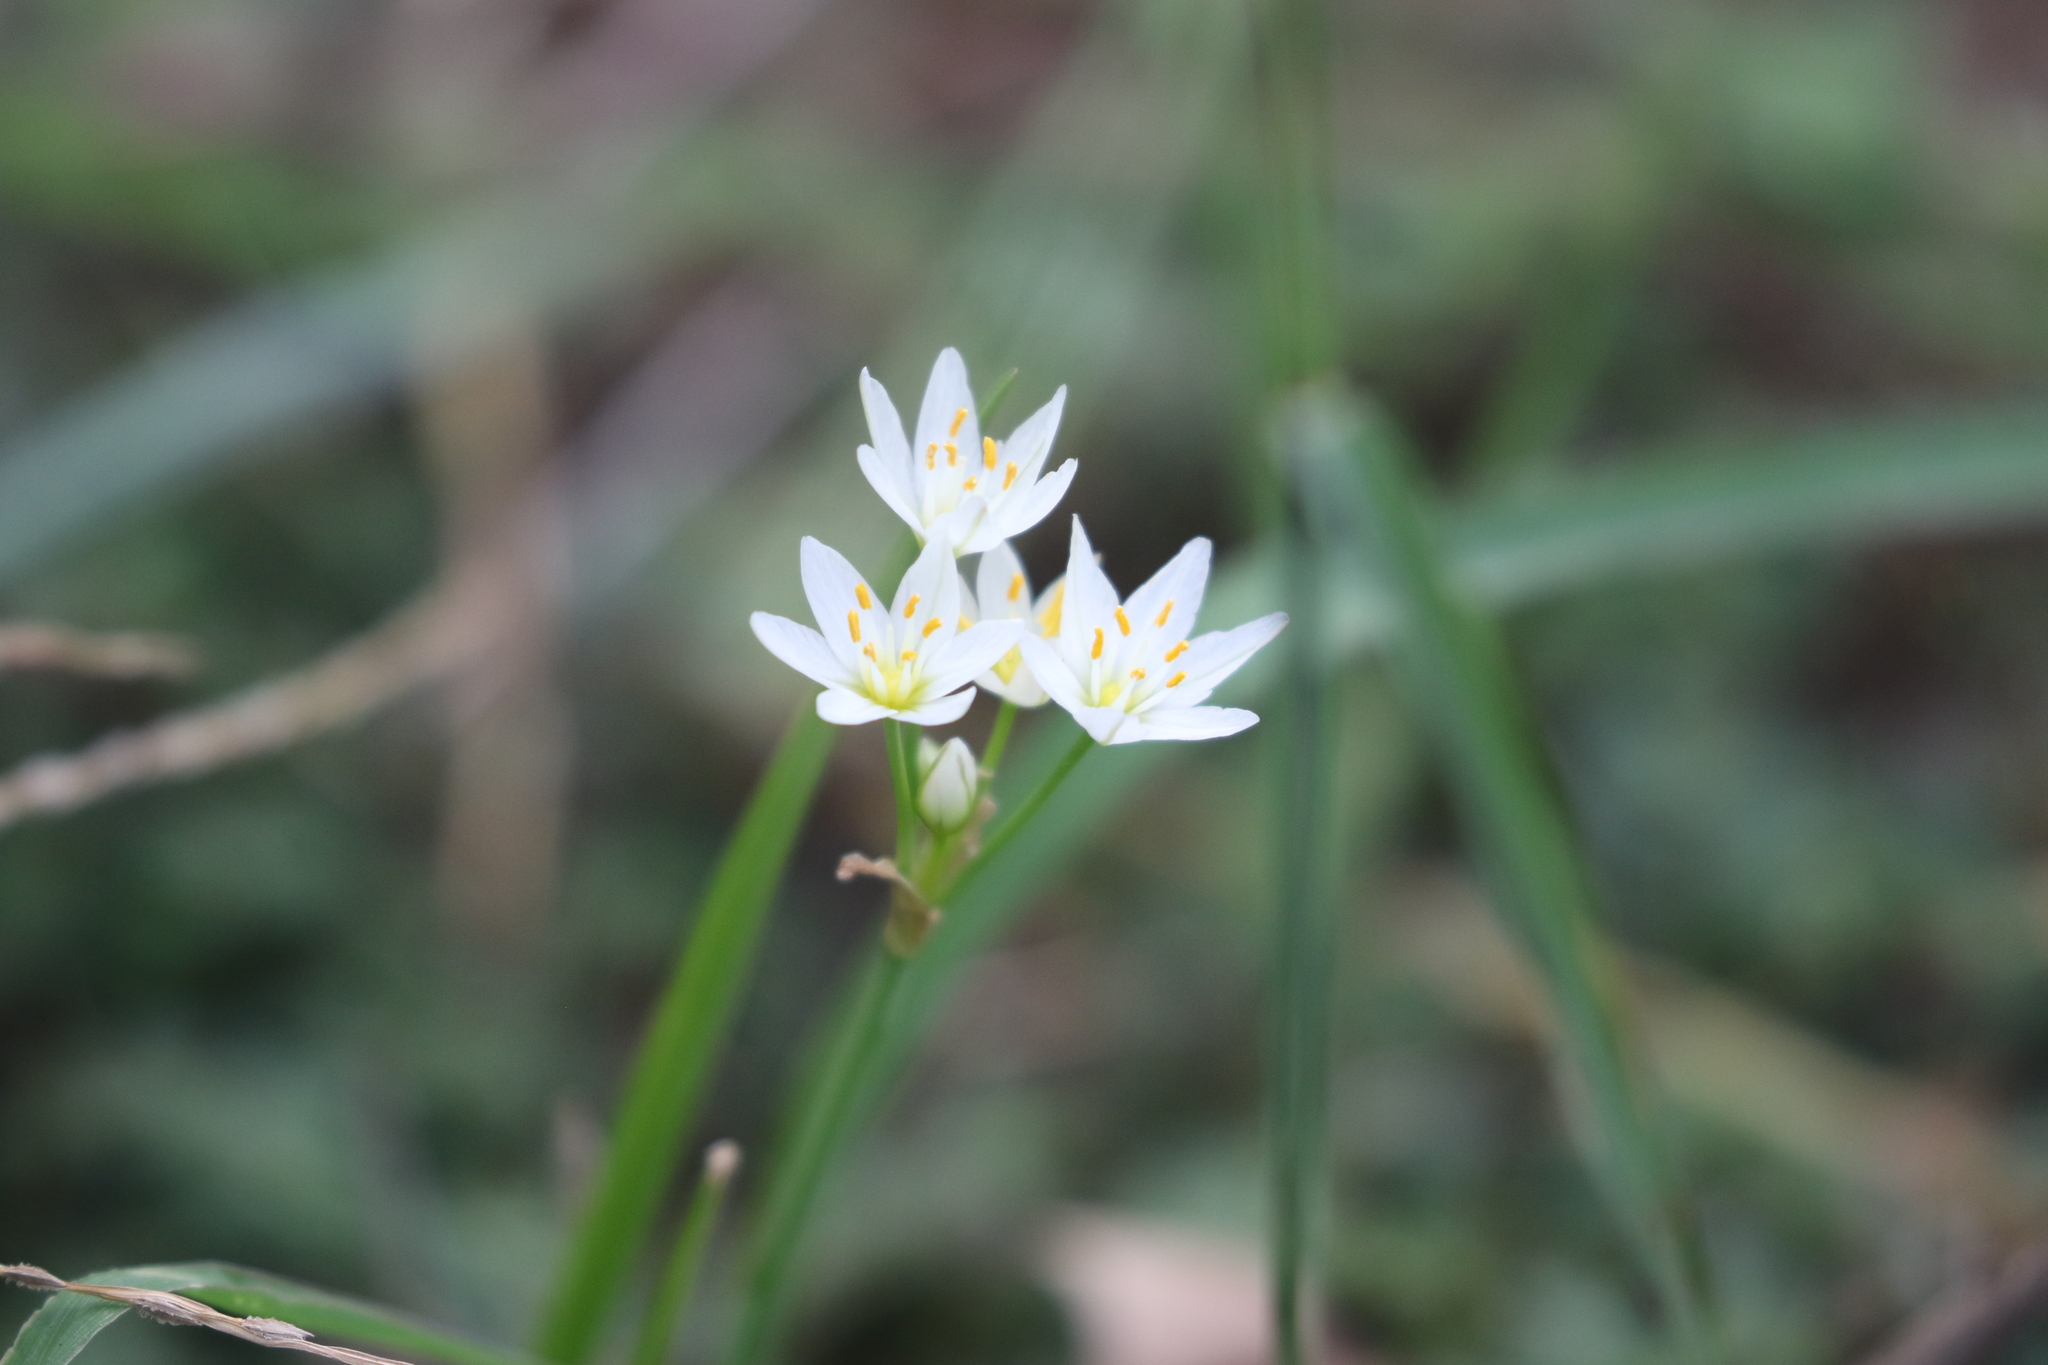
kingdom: Plantae
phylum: Tracheophyta
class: Liliopsida
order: Asparagales
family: Amaryllidaceae
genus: Nothoscordum
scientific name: Nothoscordum bivalve
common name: Crow-poison
